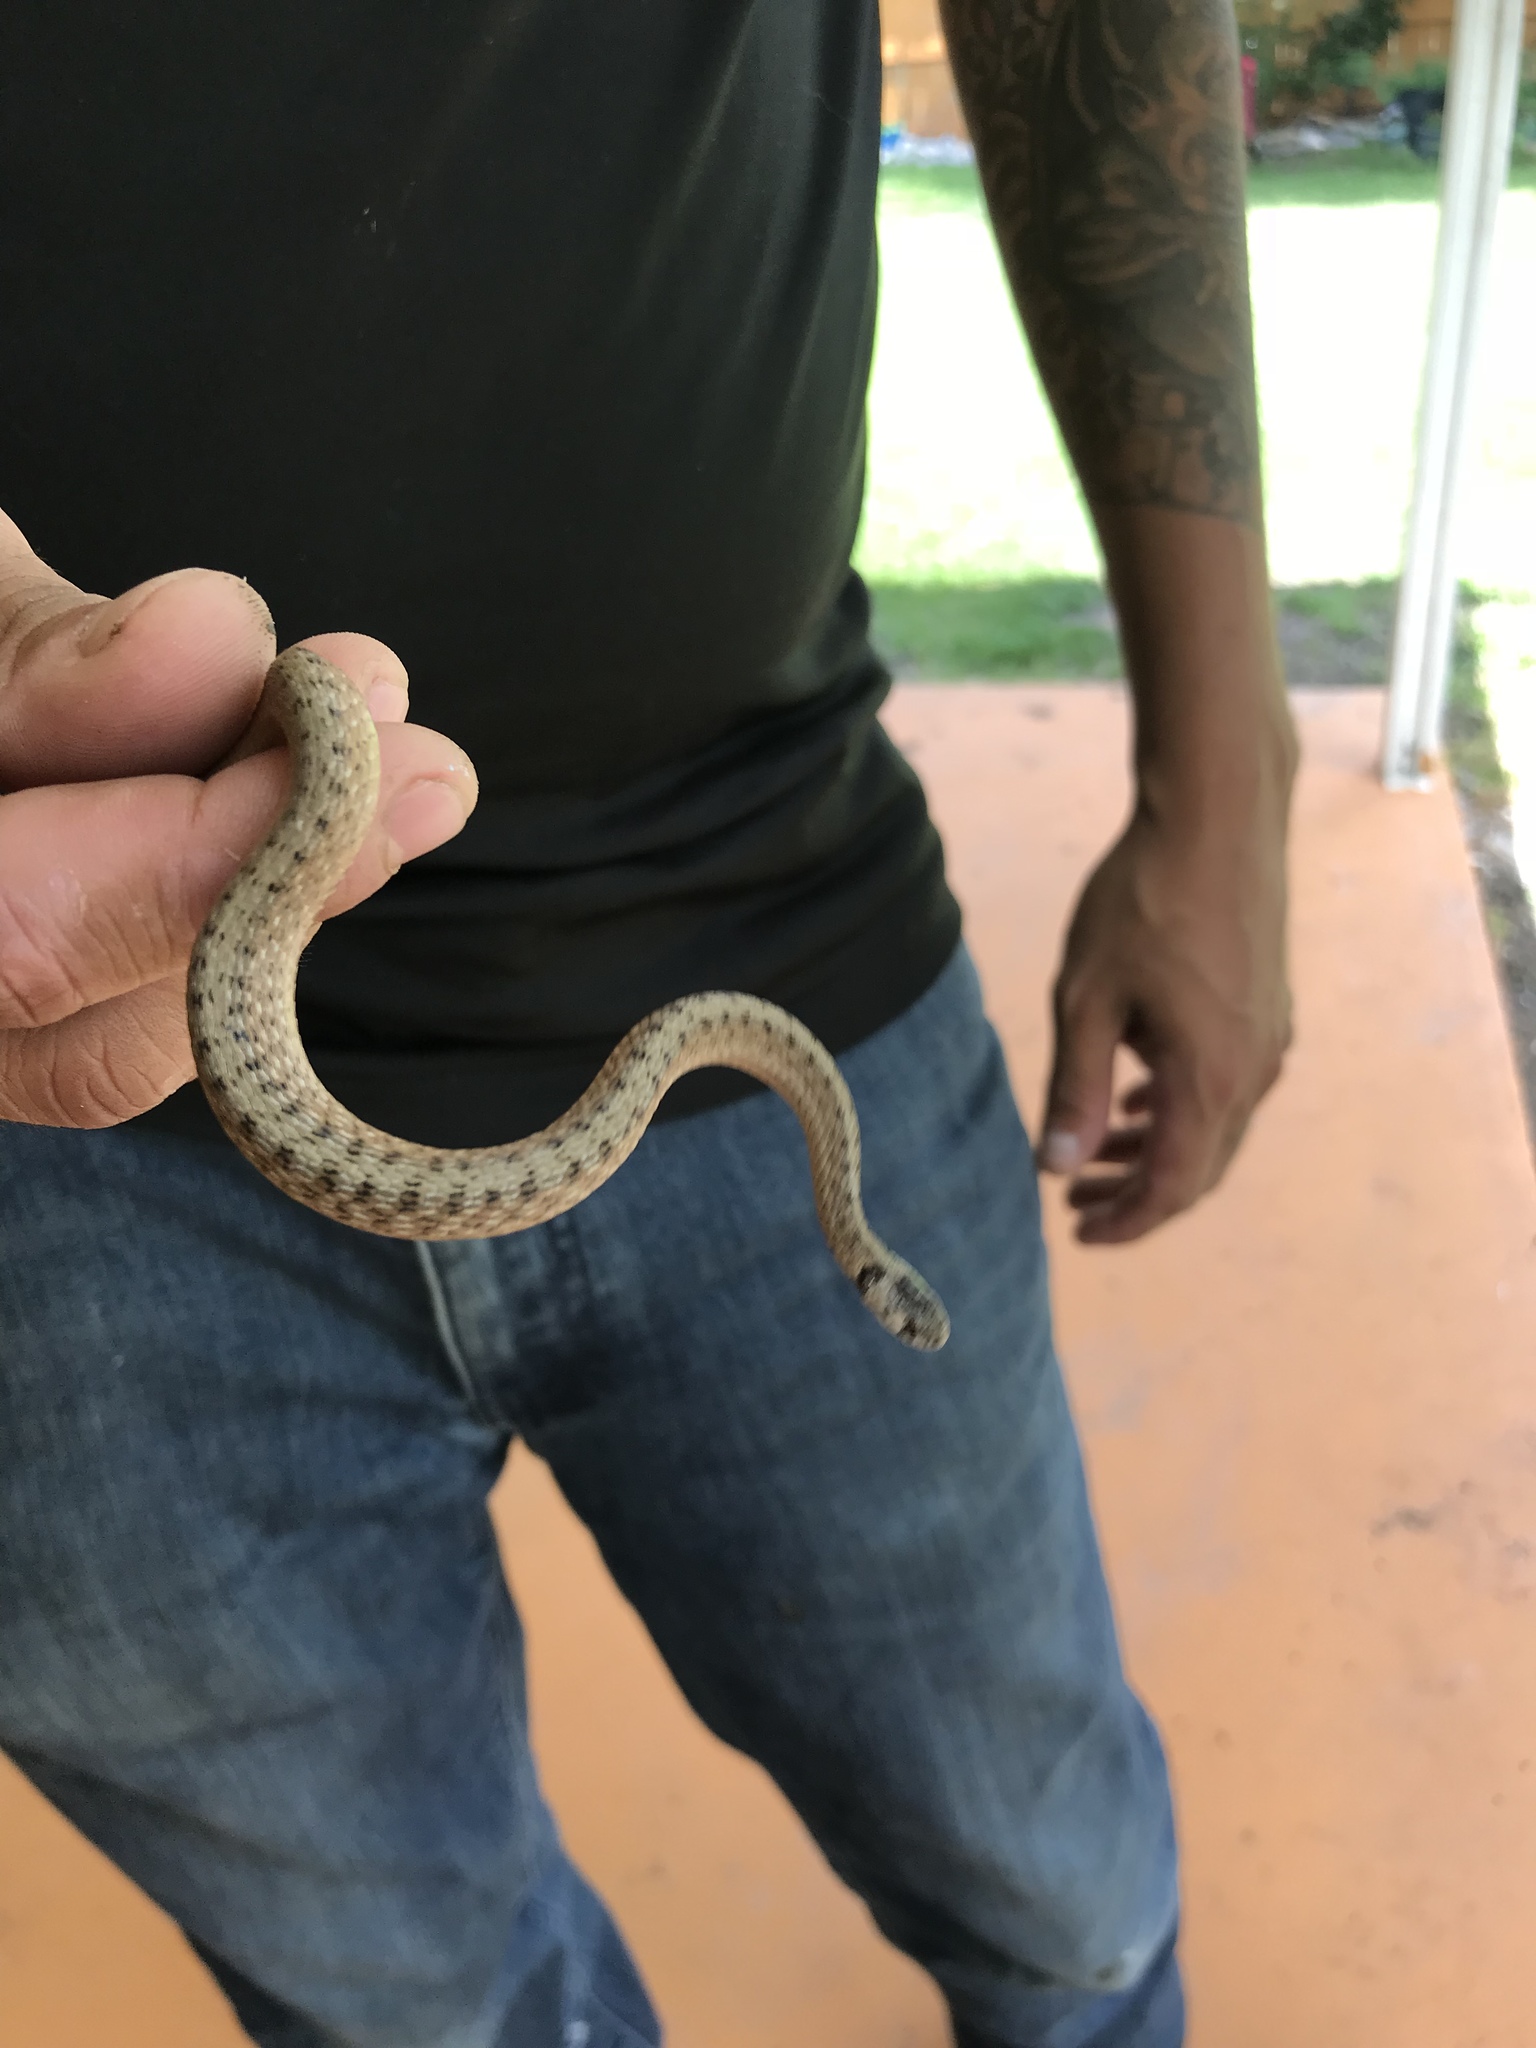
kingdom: Animalia
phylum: Chordata
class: Squamata
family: Colubridae
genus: Storeria
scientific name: Storeria dekayi
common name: (dekay’s) brown snake
